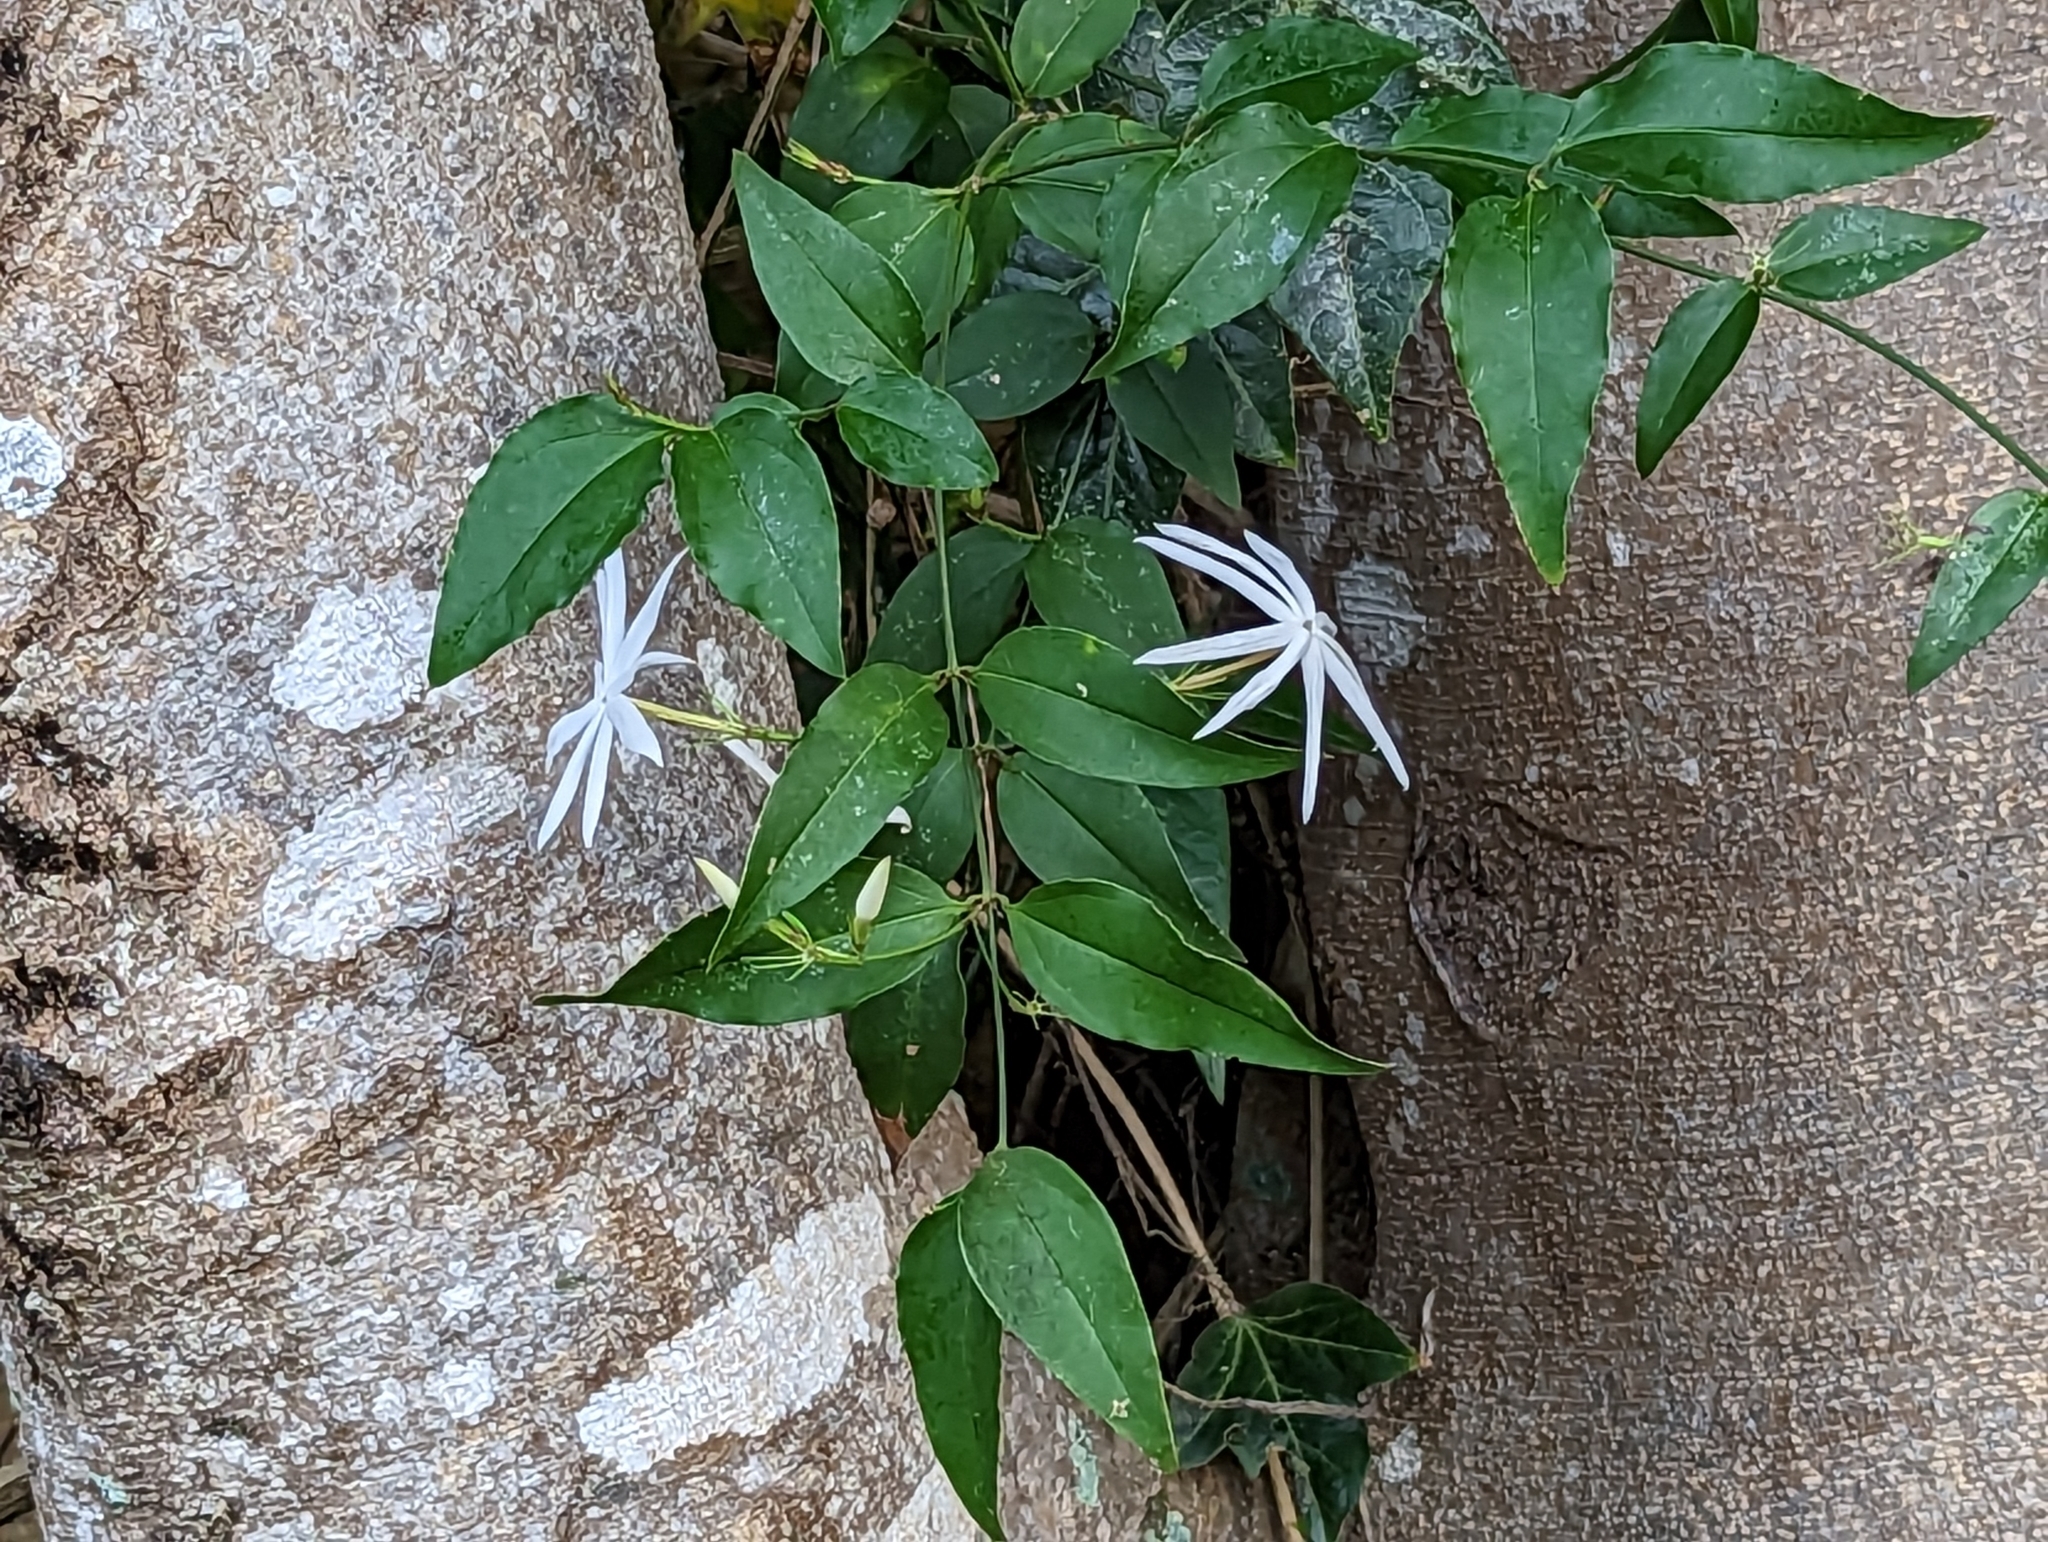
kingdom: Plantae
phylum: Tracheophyta
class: Magnoliopsida
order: Lamiales
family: Oleaceae
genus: Jasminum
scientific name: Jasminum nervosum
